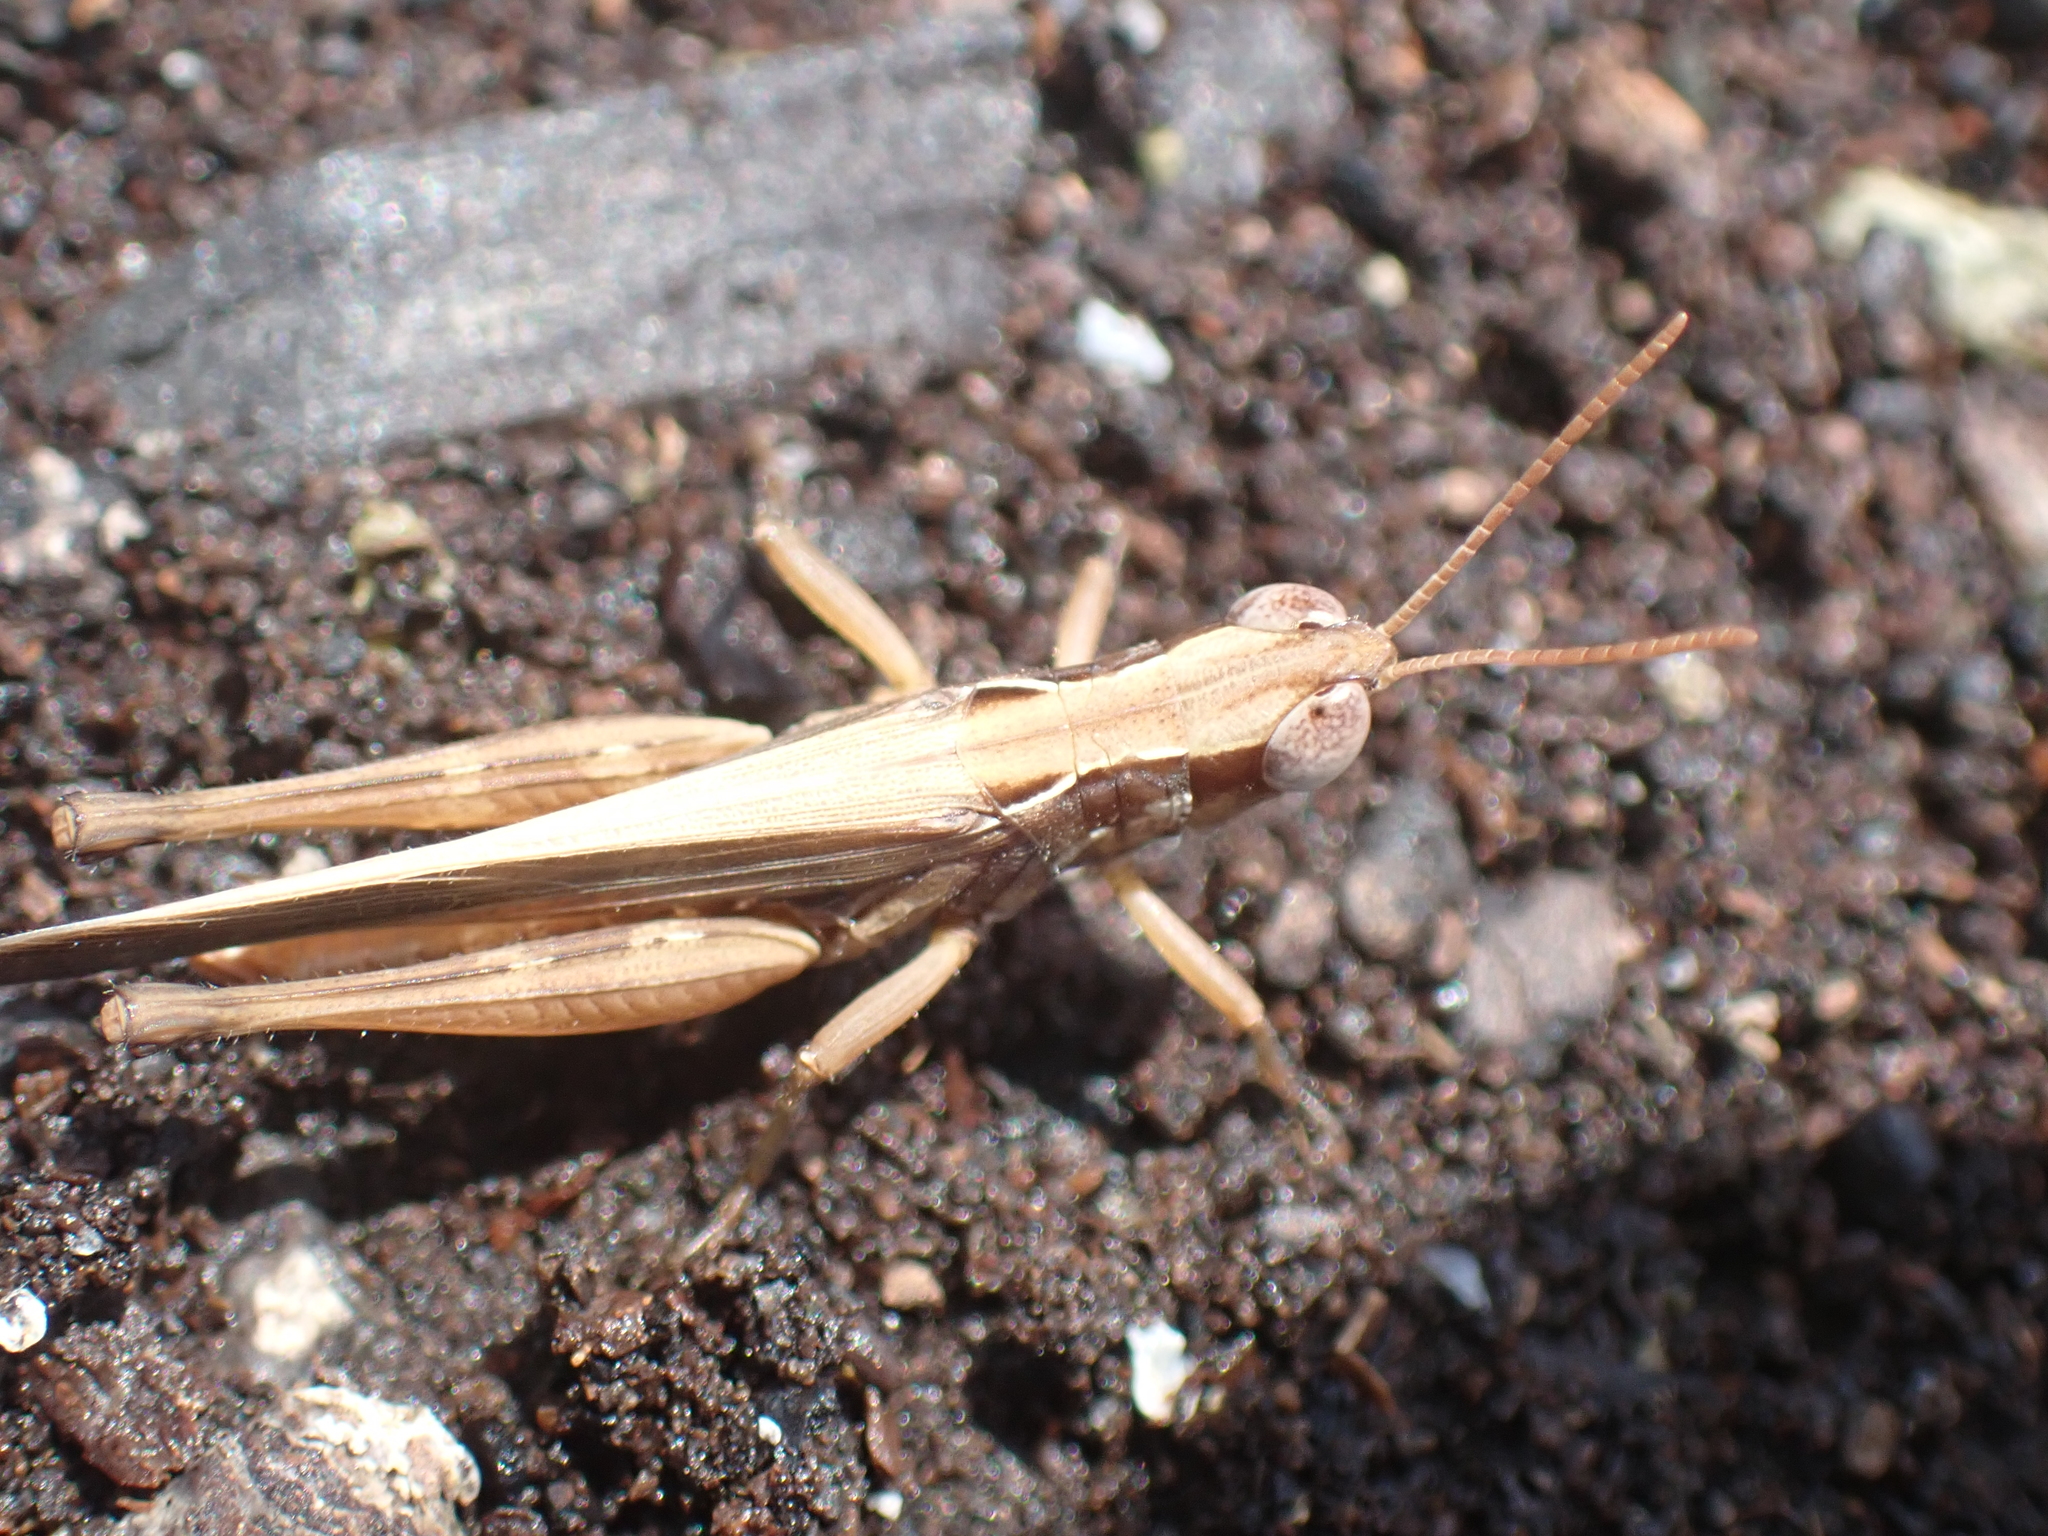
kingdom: Animalia
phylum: Arthropoda
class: Insecta
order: Orthoptera
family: Acrididae
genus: Orphulella
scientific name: Orphulella pelidna
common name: Spotted-wing grasshopper
